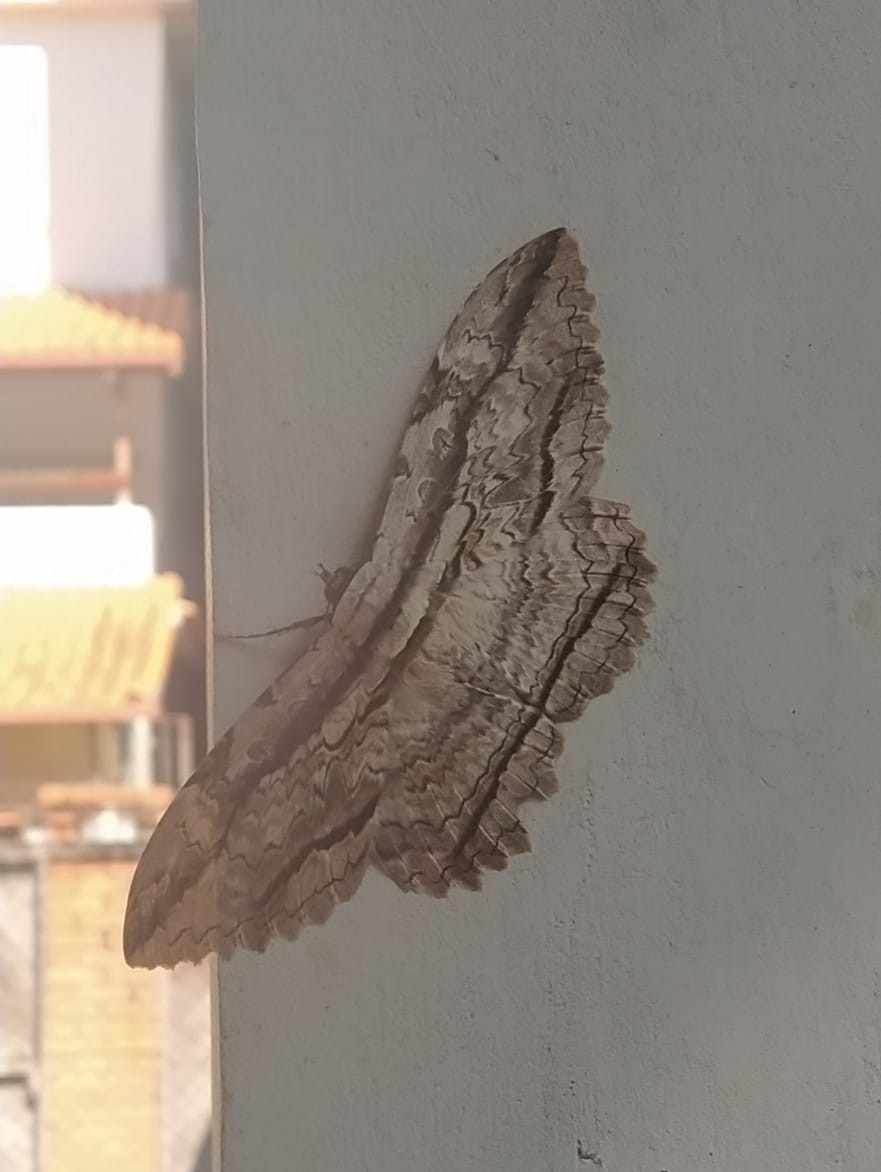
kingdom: Animalia
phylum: Arthropoda
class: Insecta
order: Lepidoptera
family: Erebidae
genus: Thysania
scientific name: Thysania zenobia
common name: Owl moth
